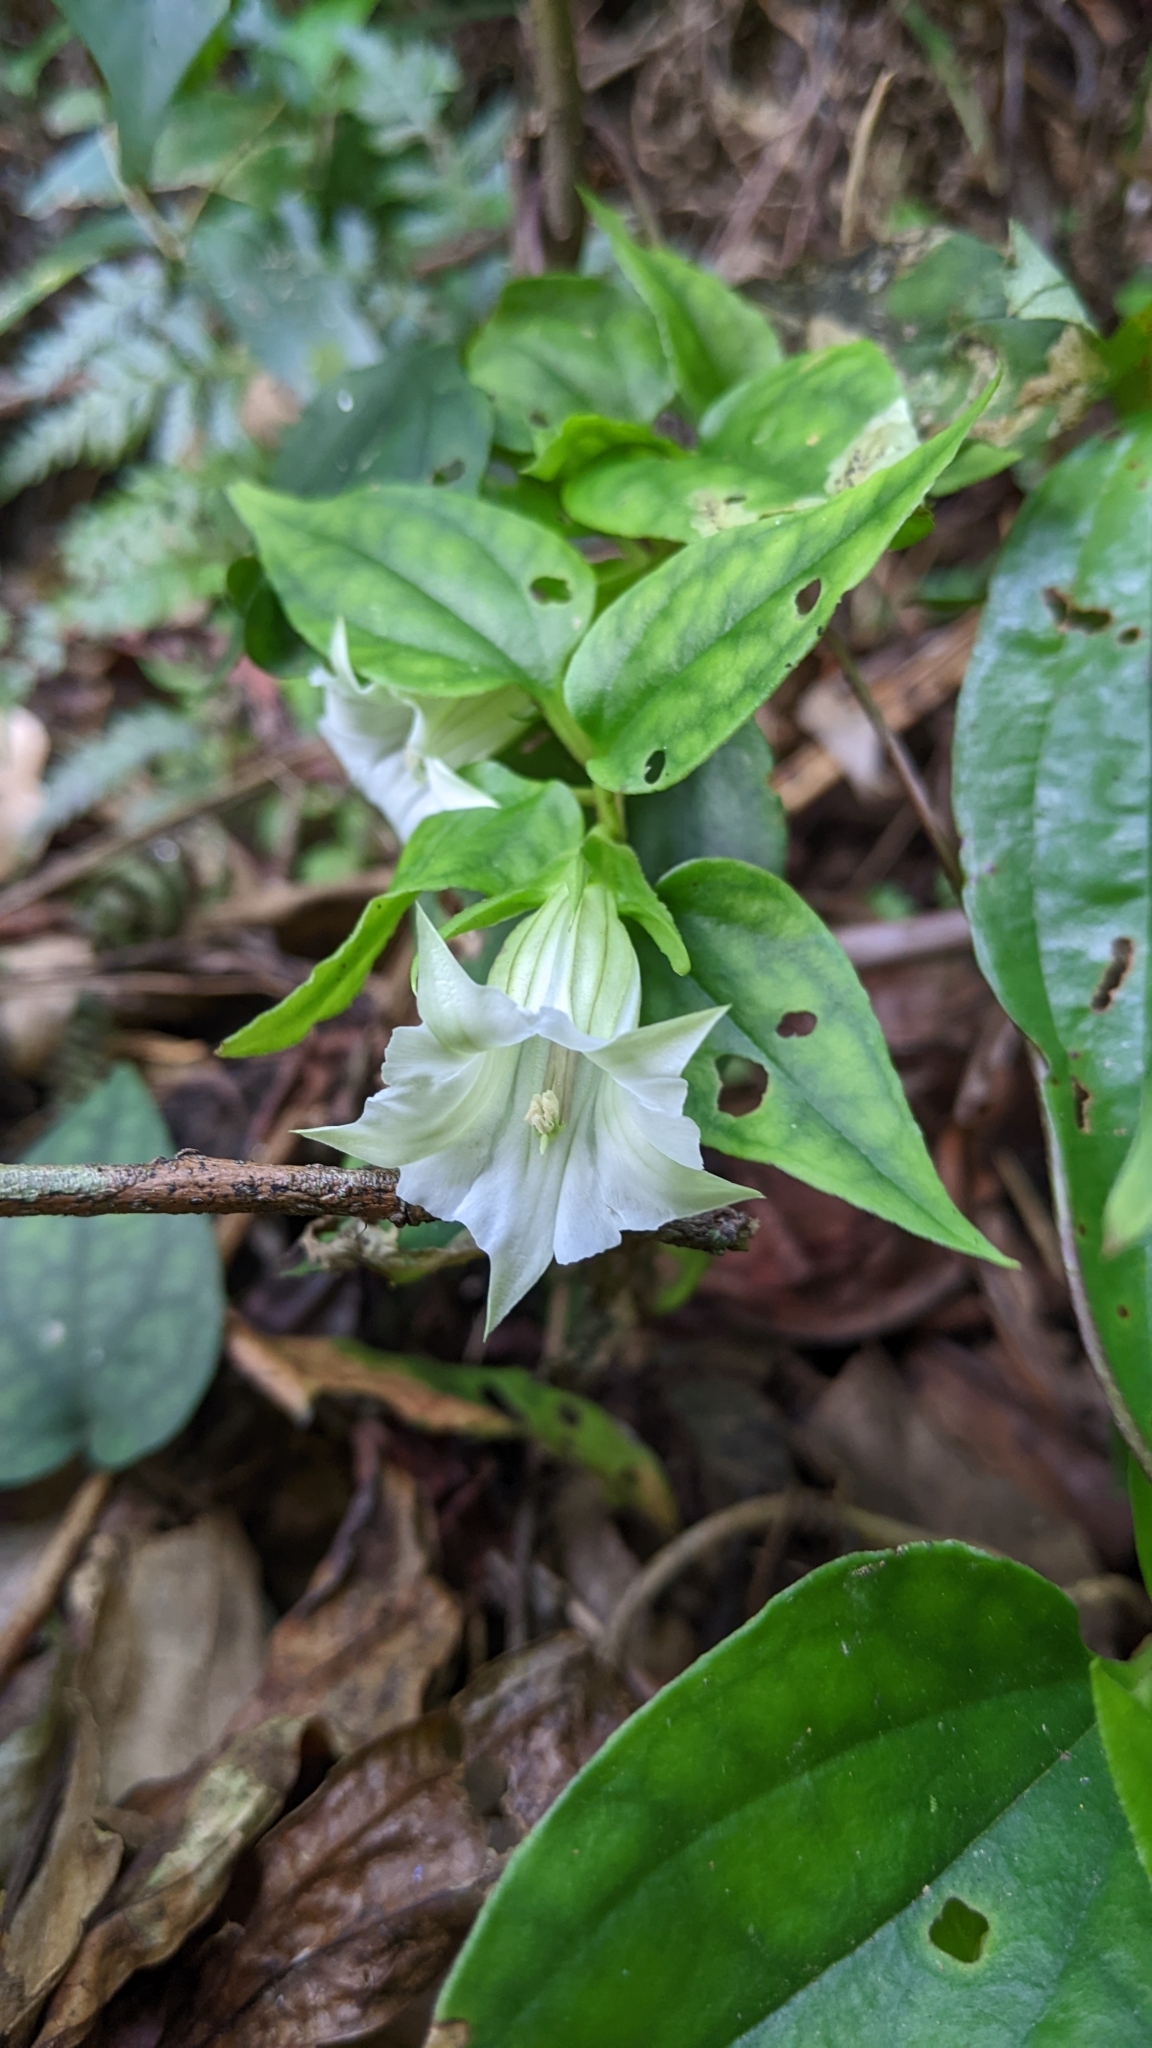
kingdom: Plantae
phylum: Tracheophyta
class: Magnoliopsida
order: Gentianales
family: Gentianaceae
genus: Tripterospermum
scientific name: Tripterospermum taiwanense
